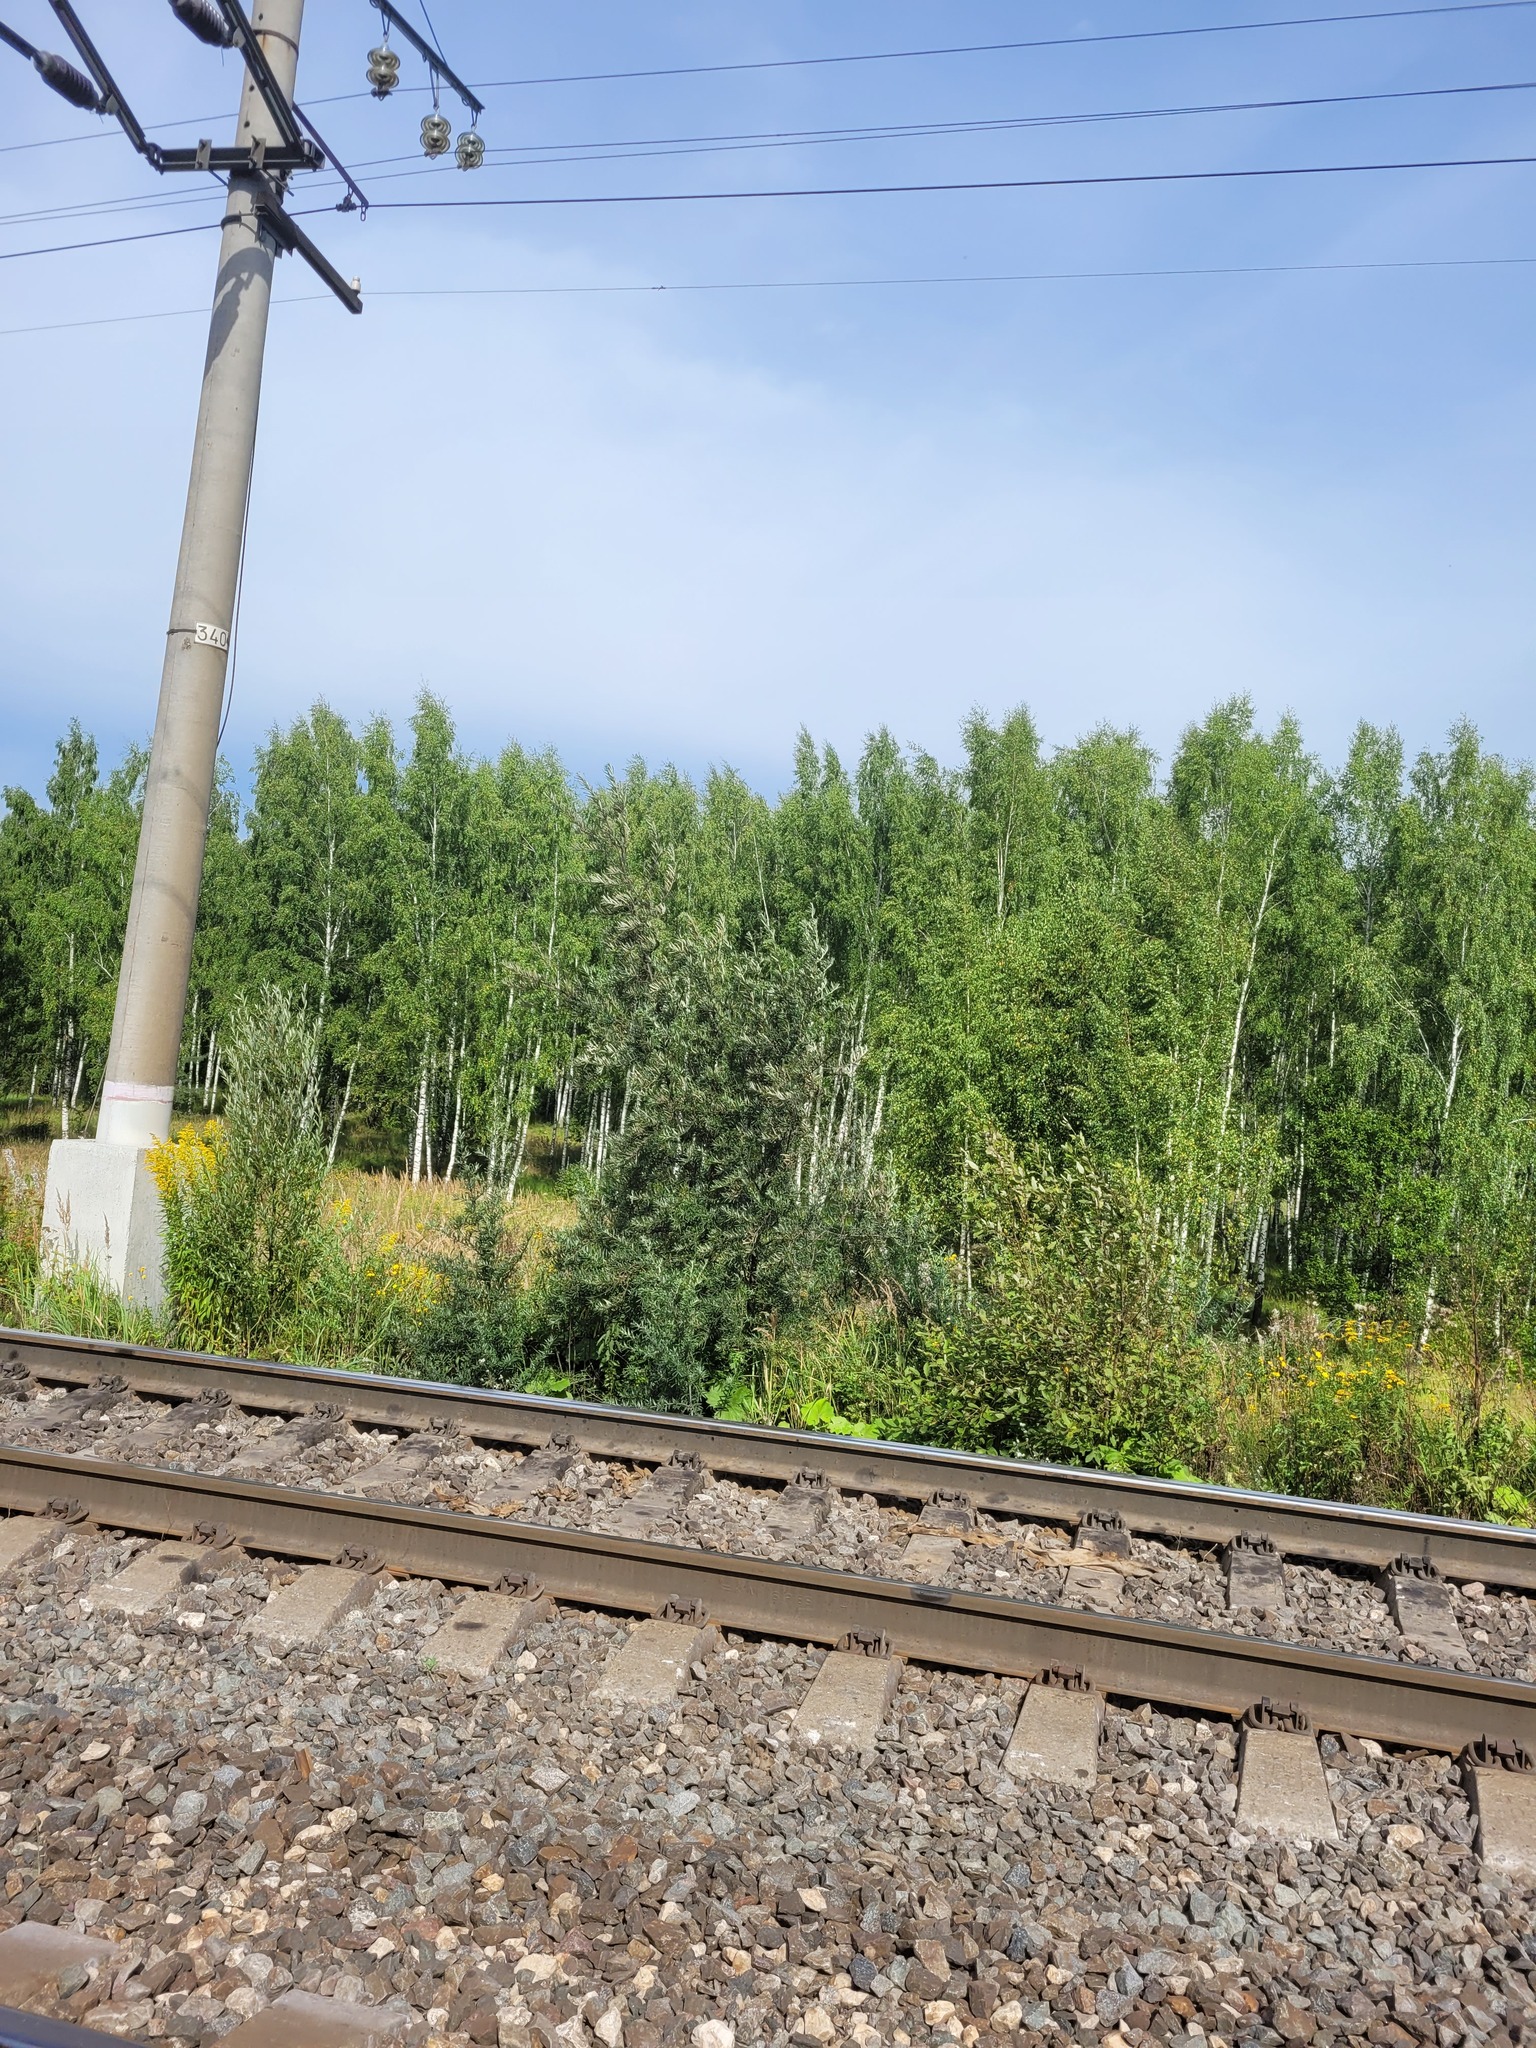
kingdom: Plantae
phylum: Tracheophyta
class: Magnoliopsida
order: Rosales
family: Elaeagnaceae
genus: Hippophae
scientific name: Hippophae rhamnoides
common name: Sea-buckthorn
